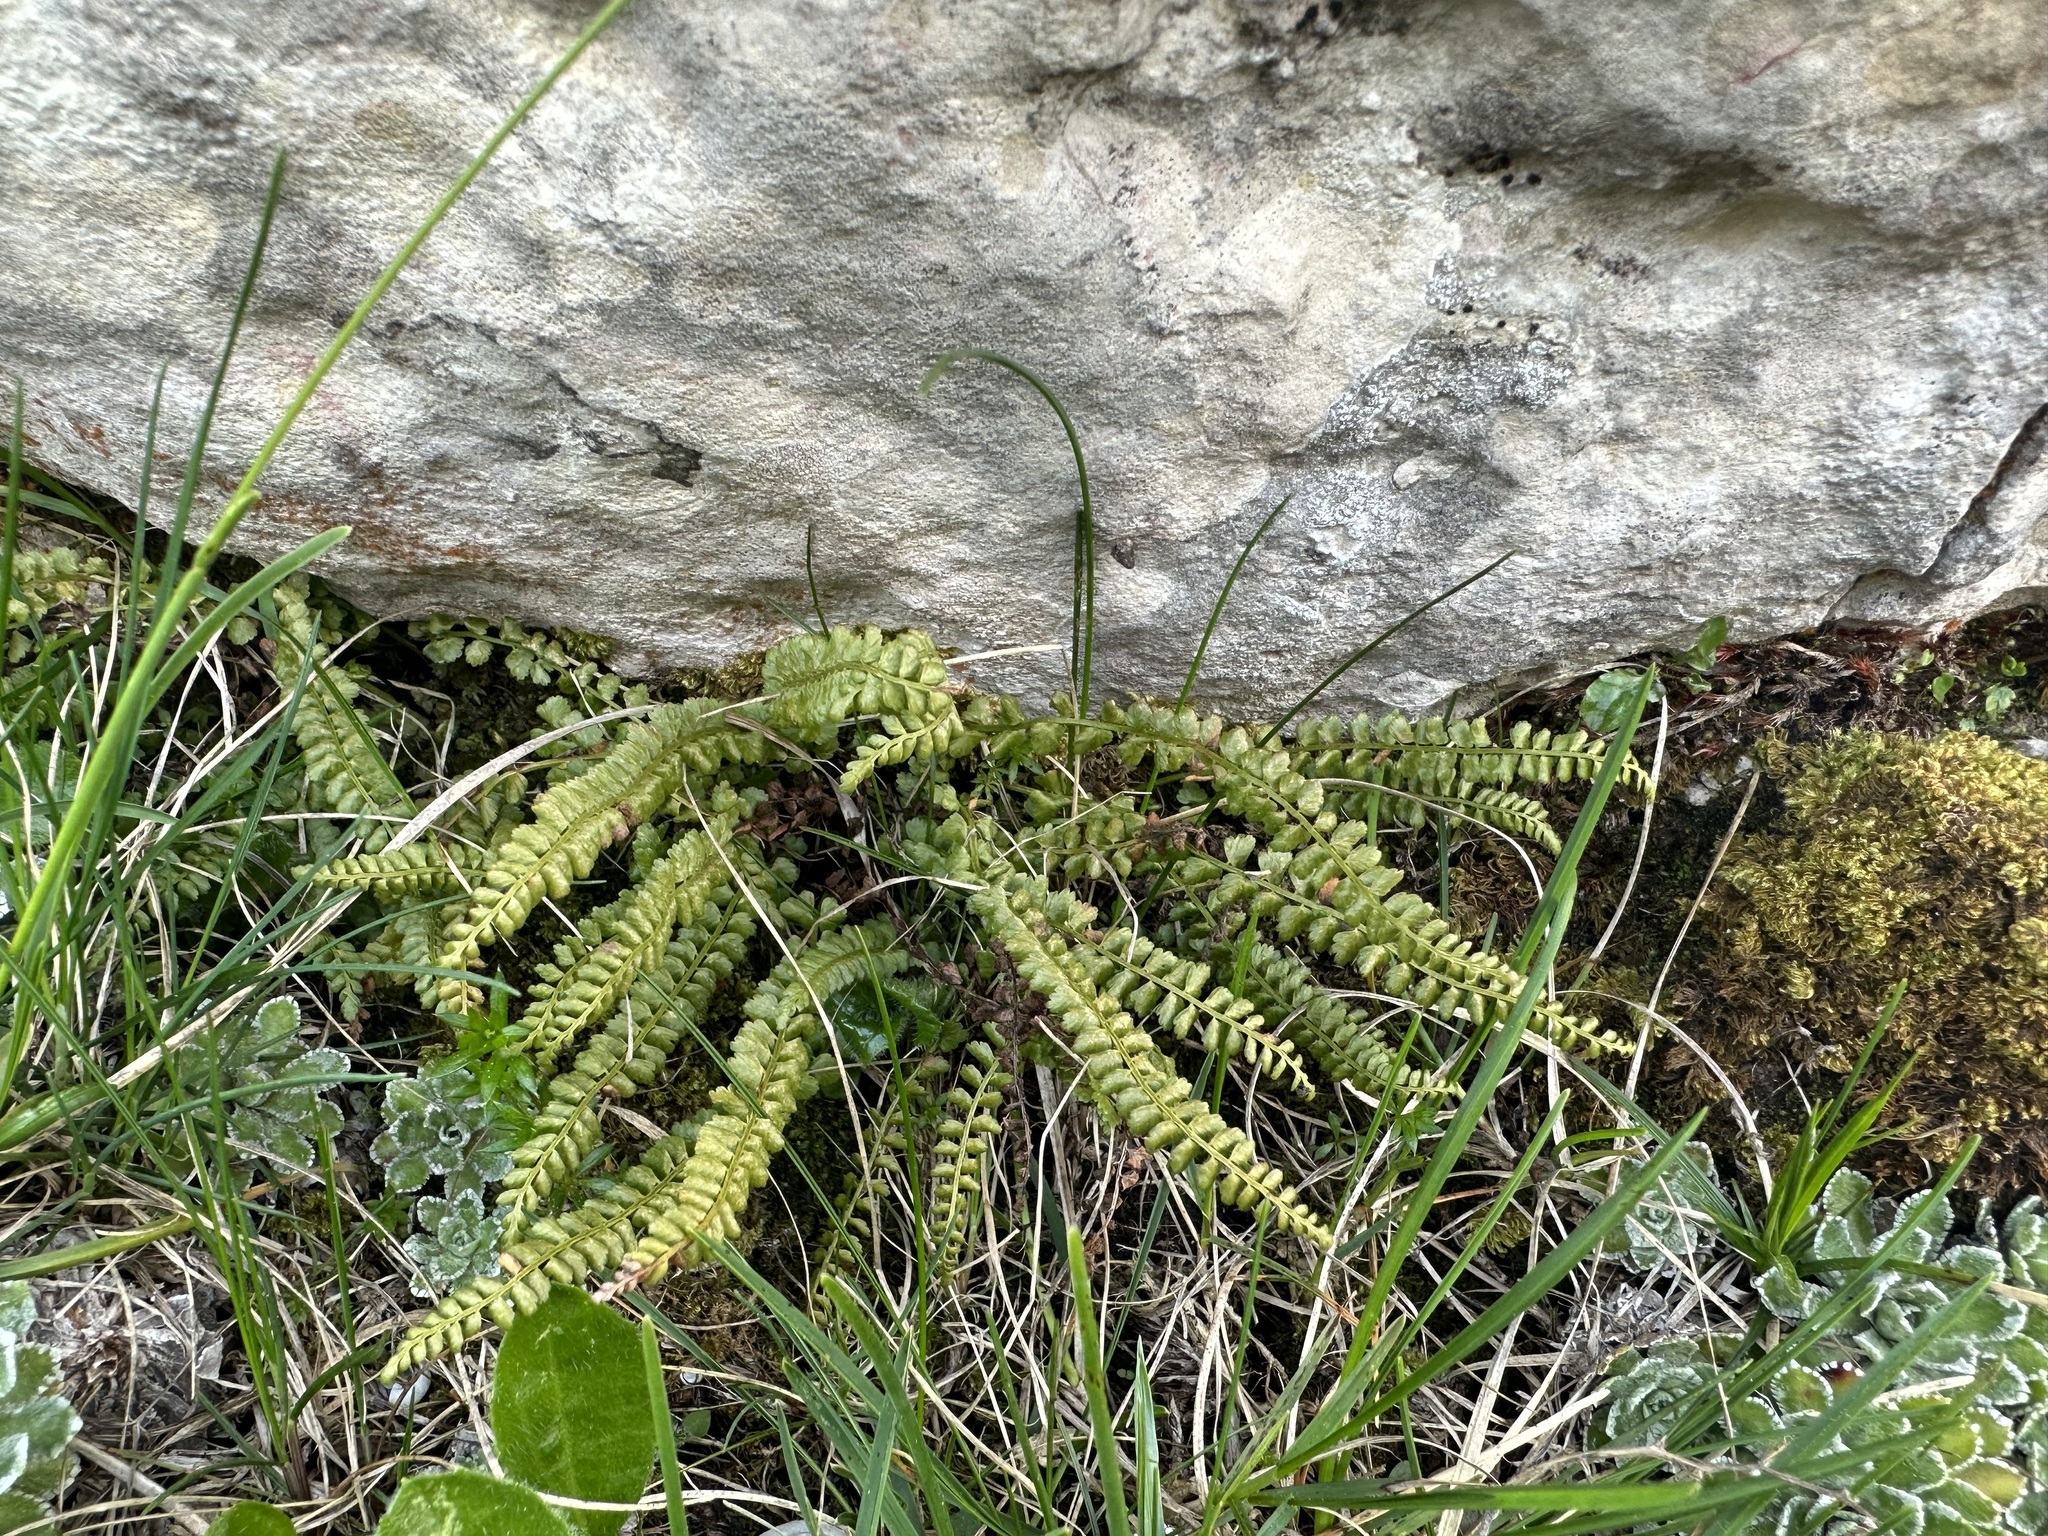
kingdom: Plantae
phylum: Tracheophyta
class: Polypodiopsida
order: Polypodiales
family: Aspleniaceae
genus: Asplenium
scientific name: Asplenium viride
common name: Green spleenwort
